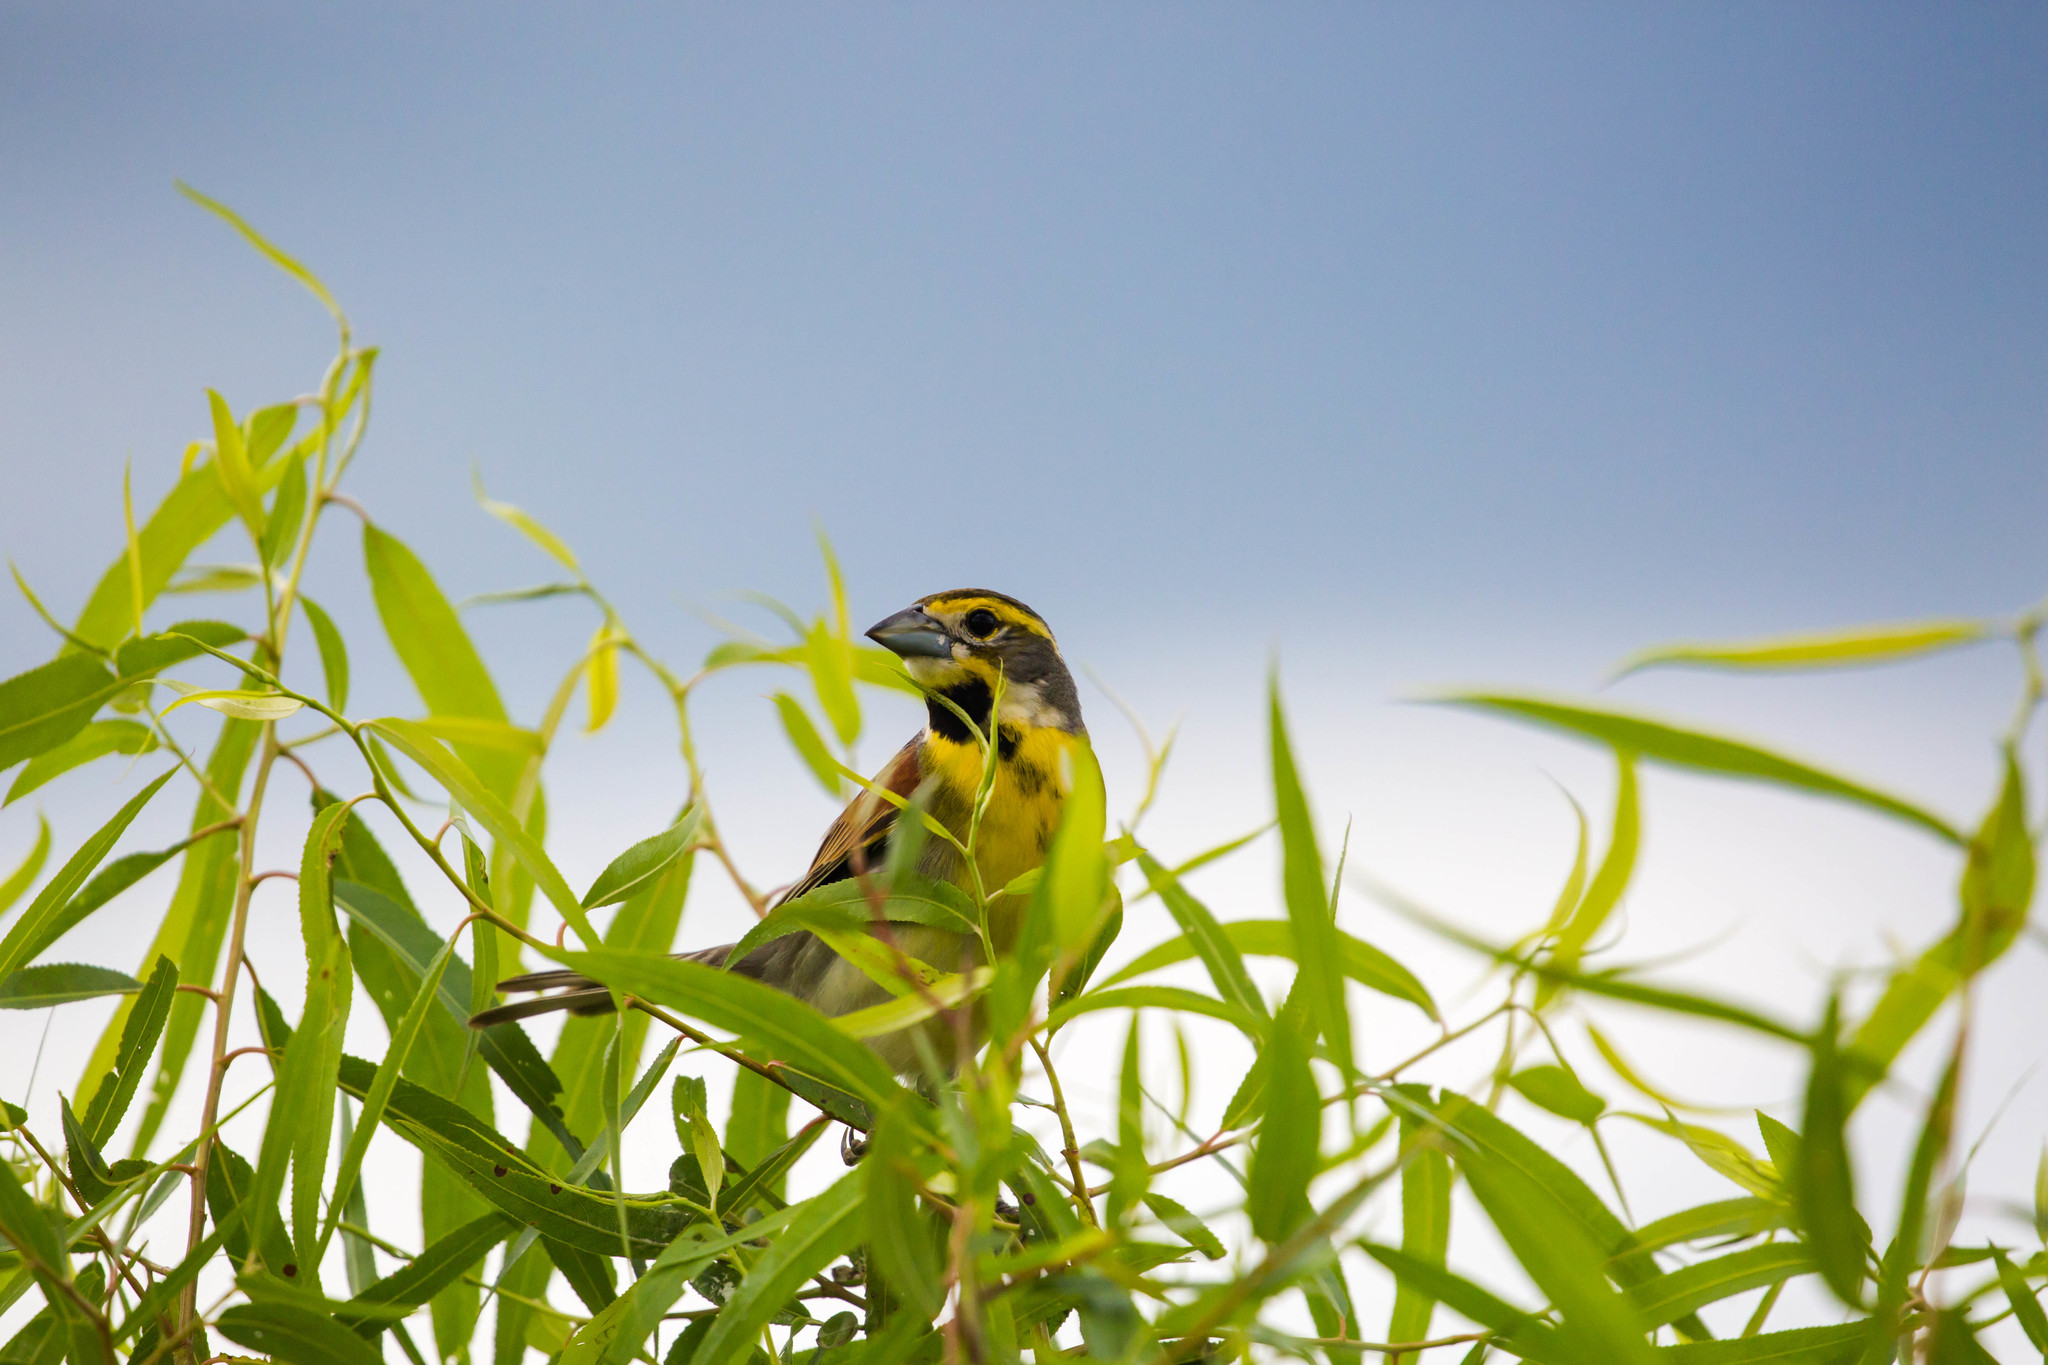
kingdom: Animalia
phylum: Chordata
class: Aves
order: Passeriformes
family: Cardinalidae
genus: Spiza
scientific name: Spiza americana
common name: Dickcissel
